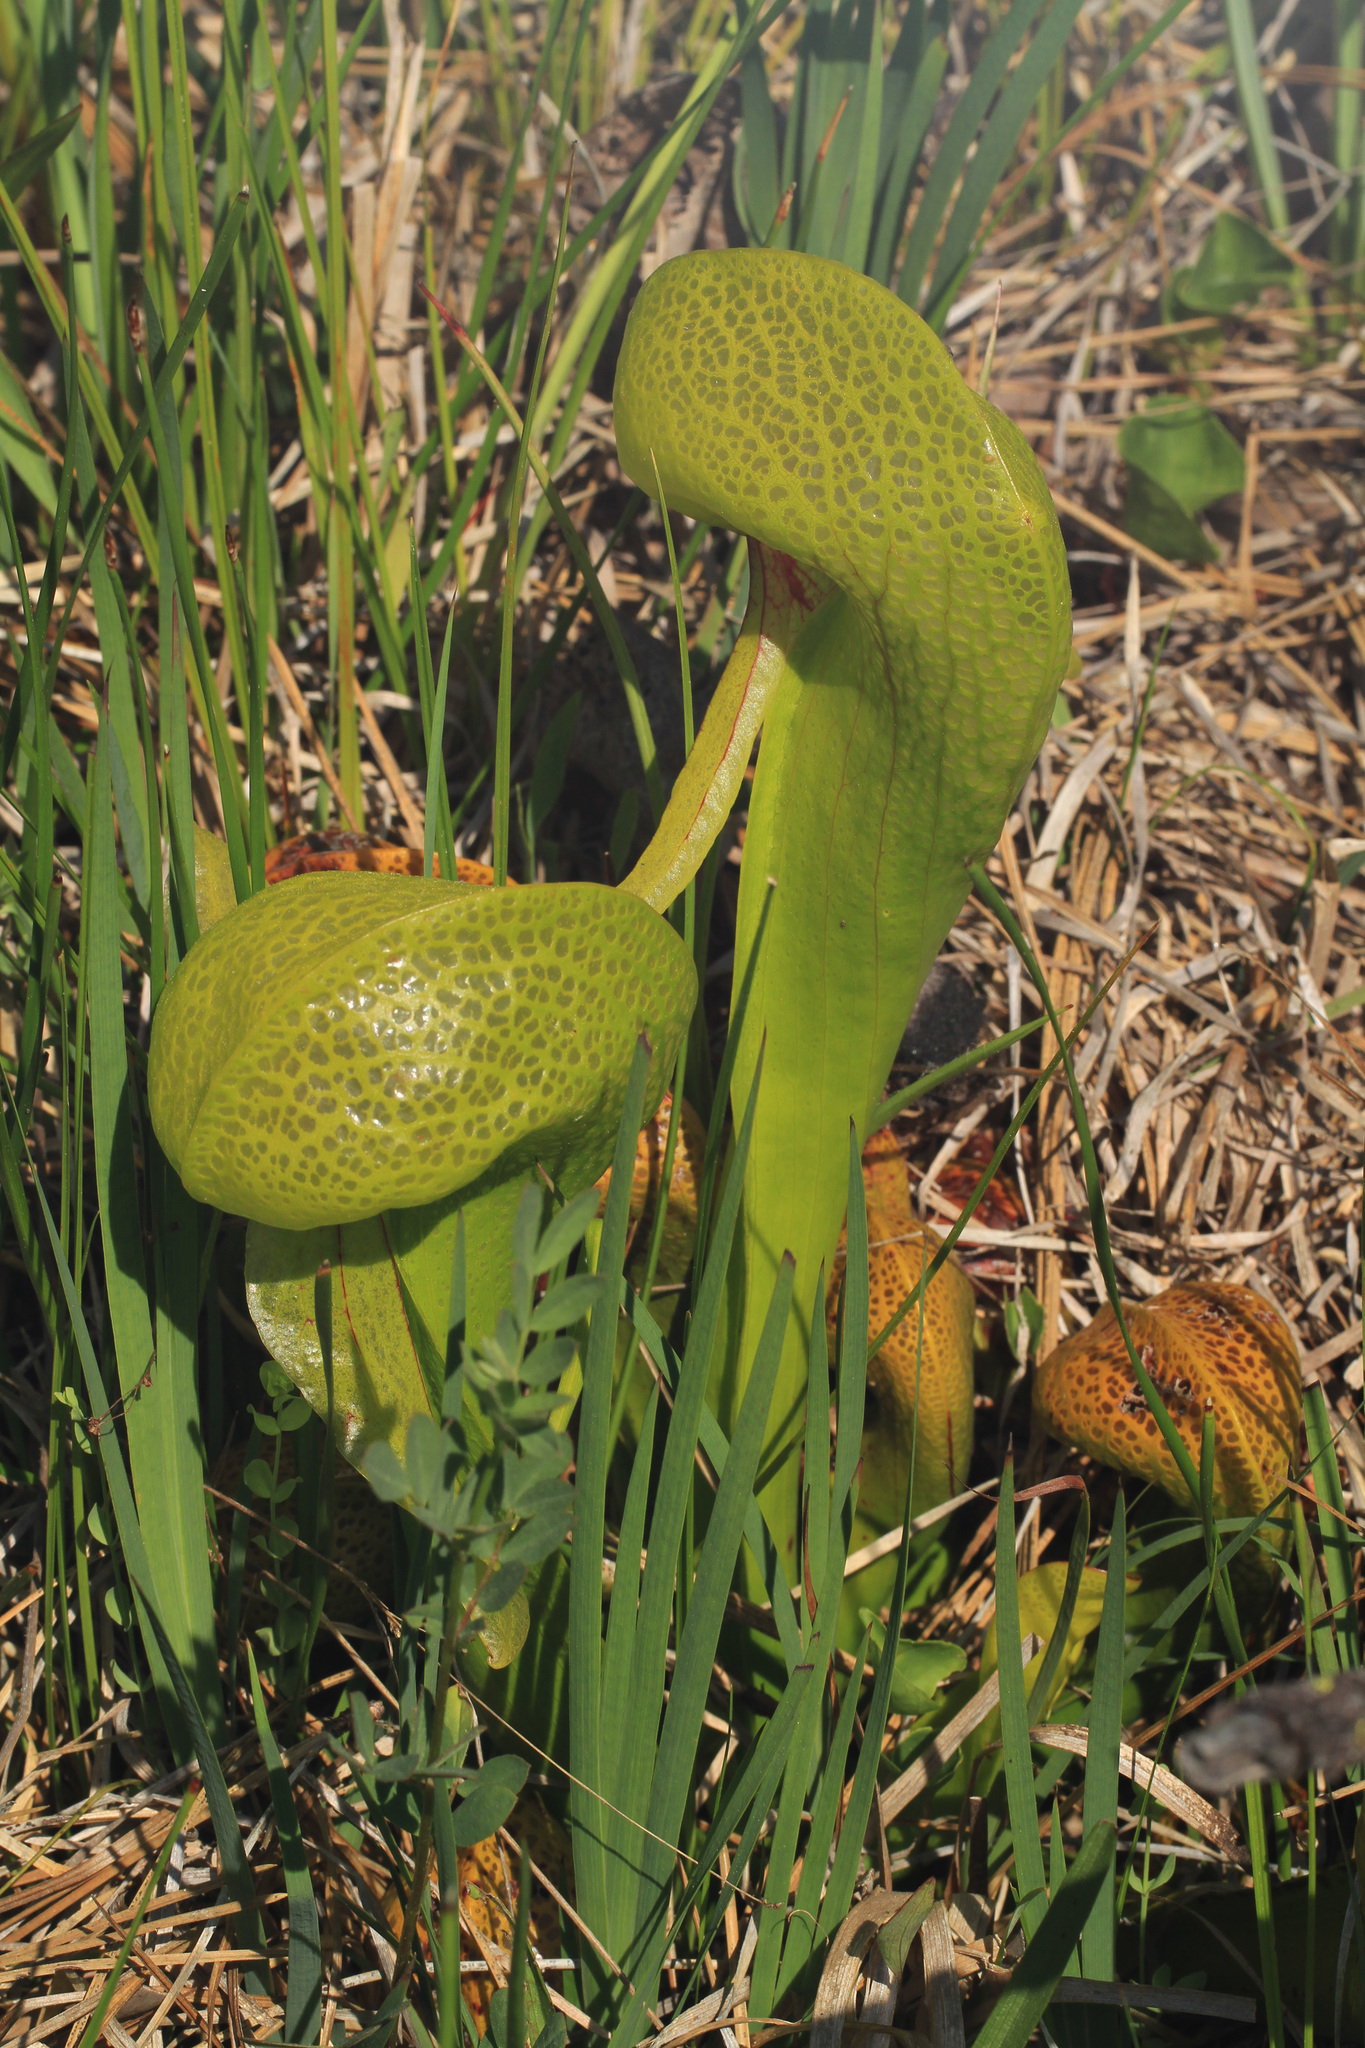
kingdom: Plantae
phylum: Tracheophyta
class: Magnoliopsida
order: Ericales
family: Sarraceniaceae
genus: Darlingtonia
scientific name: Darlingtonia californica
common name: California pitcher plant
